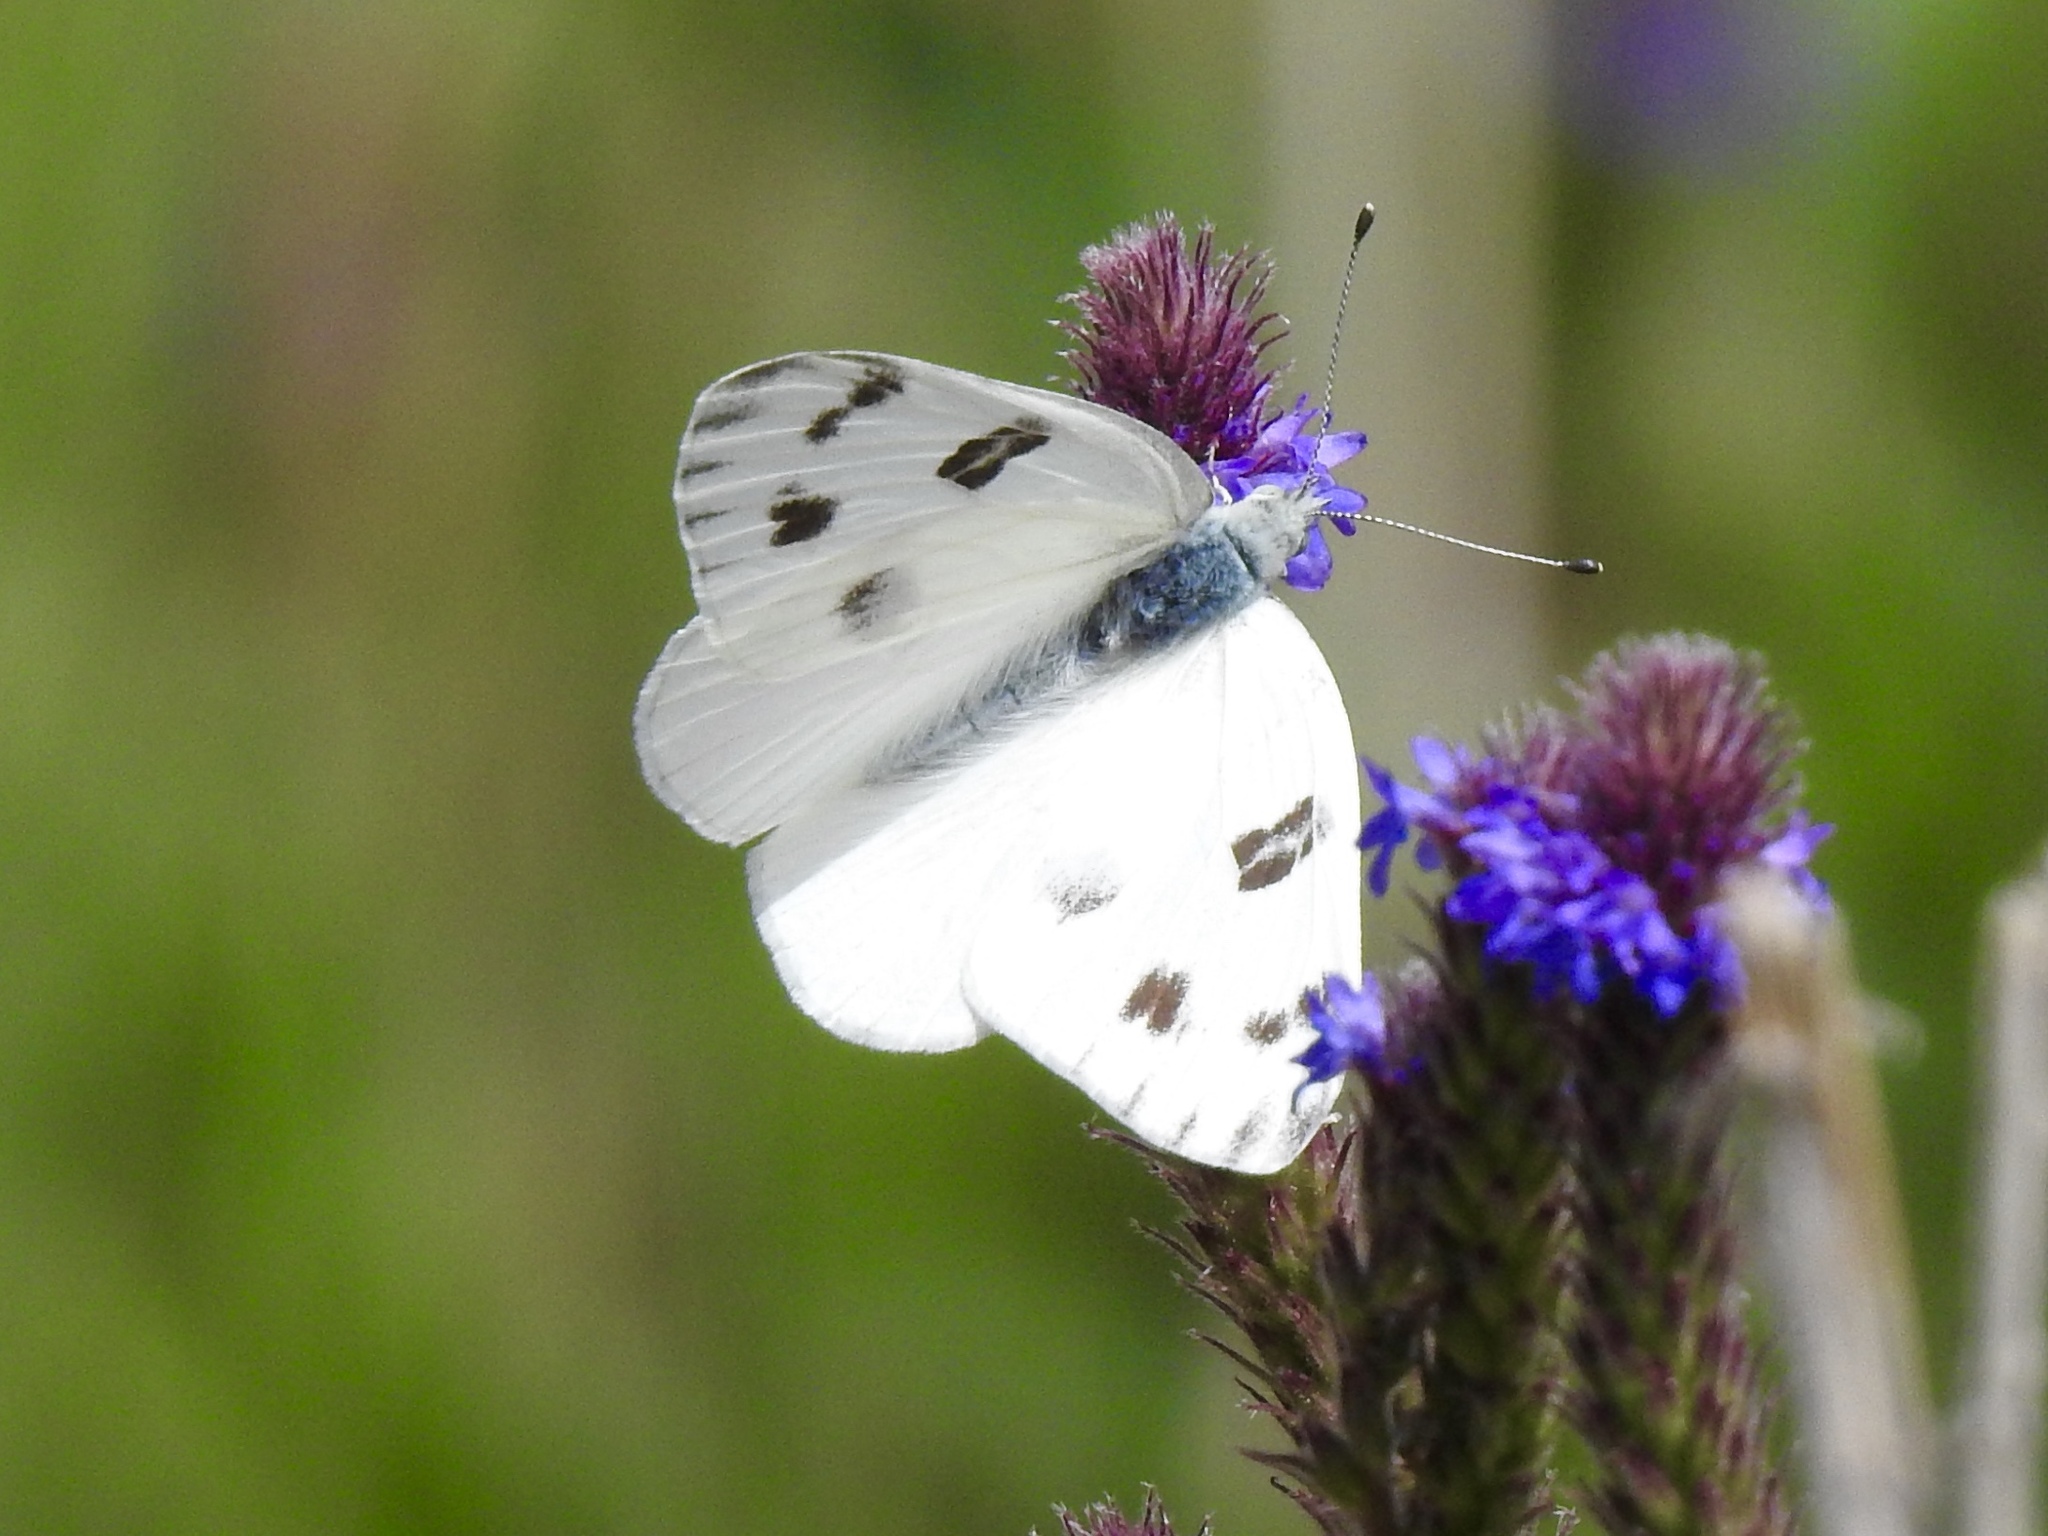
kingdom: Animalia
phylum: Arthropoda
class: Insecta
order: Lepidoptera
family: Pieridae
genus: Pontia
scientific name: Pontia protodice
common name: Checkered white
